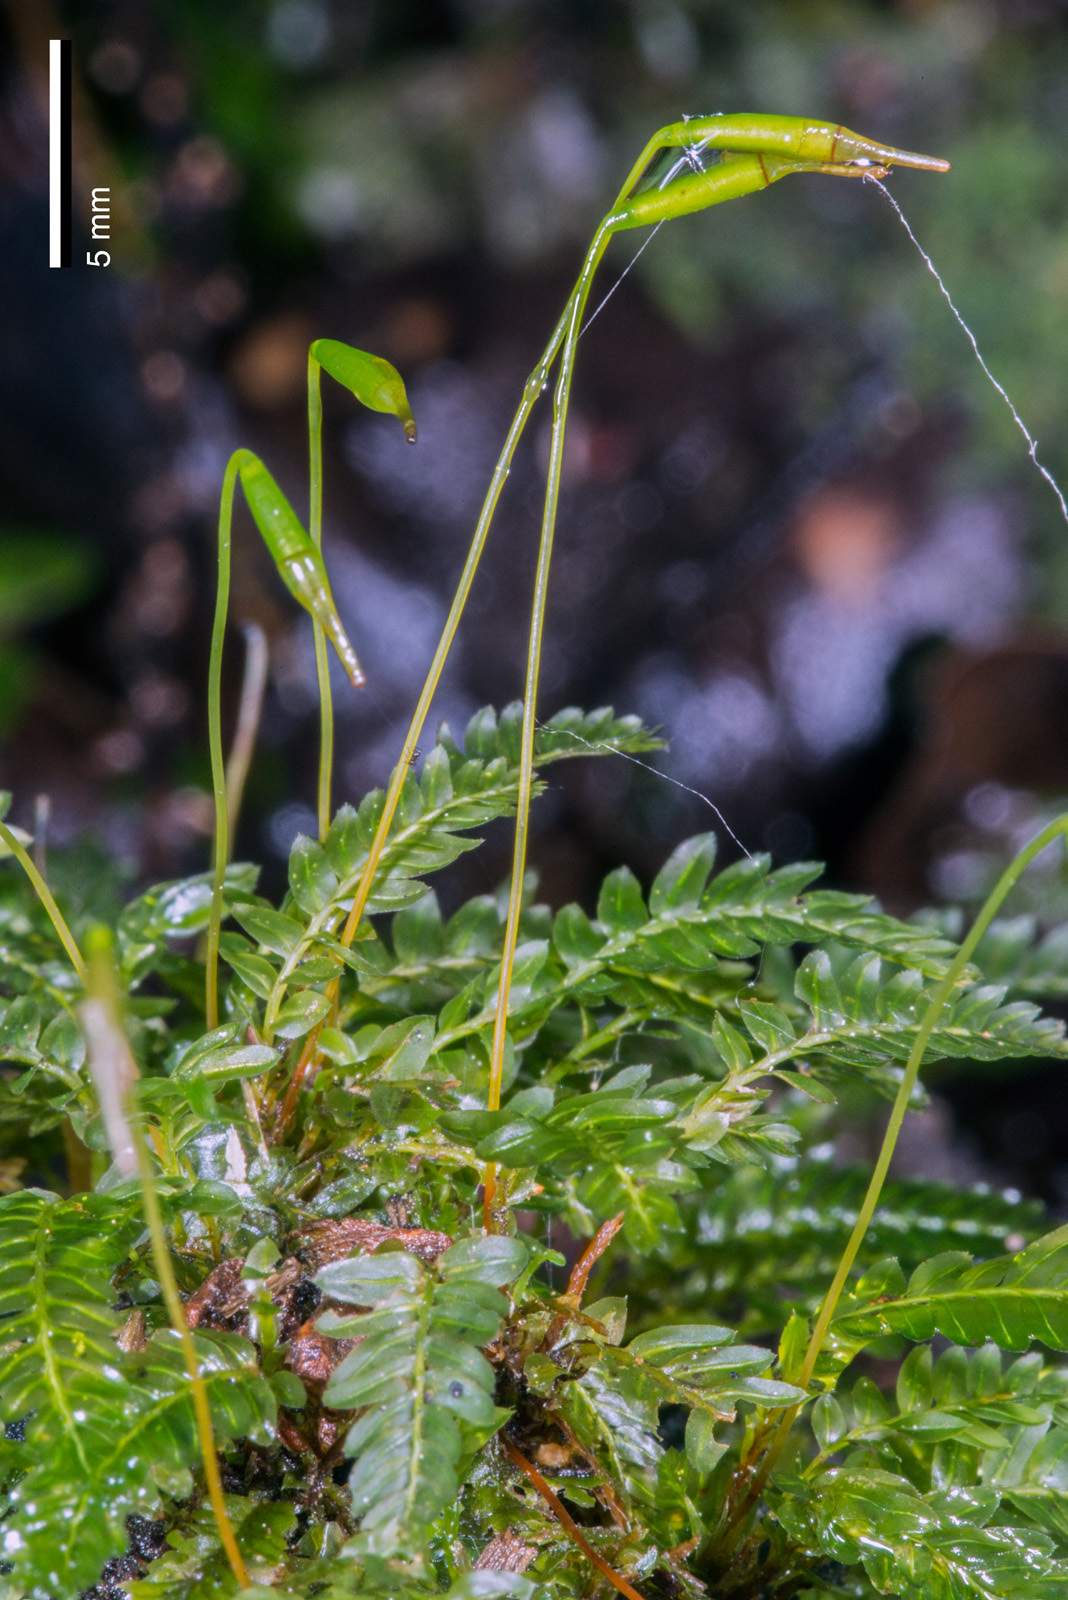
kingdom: Plantae
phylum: Bryophyta
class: Bryopsida
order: Rhizogoniales
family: Rhizogoniaceae
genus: Rhizogonium
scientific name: Rhizogonium distichum
